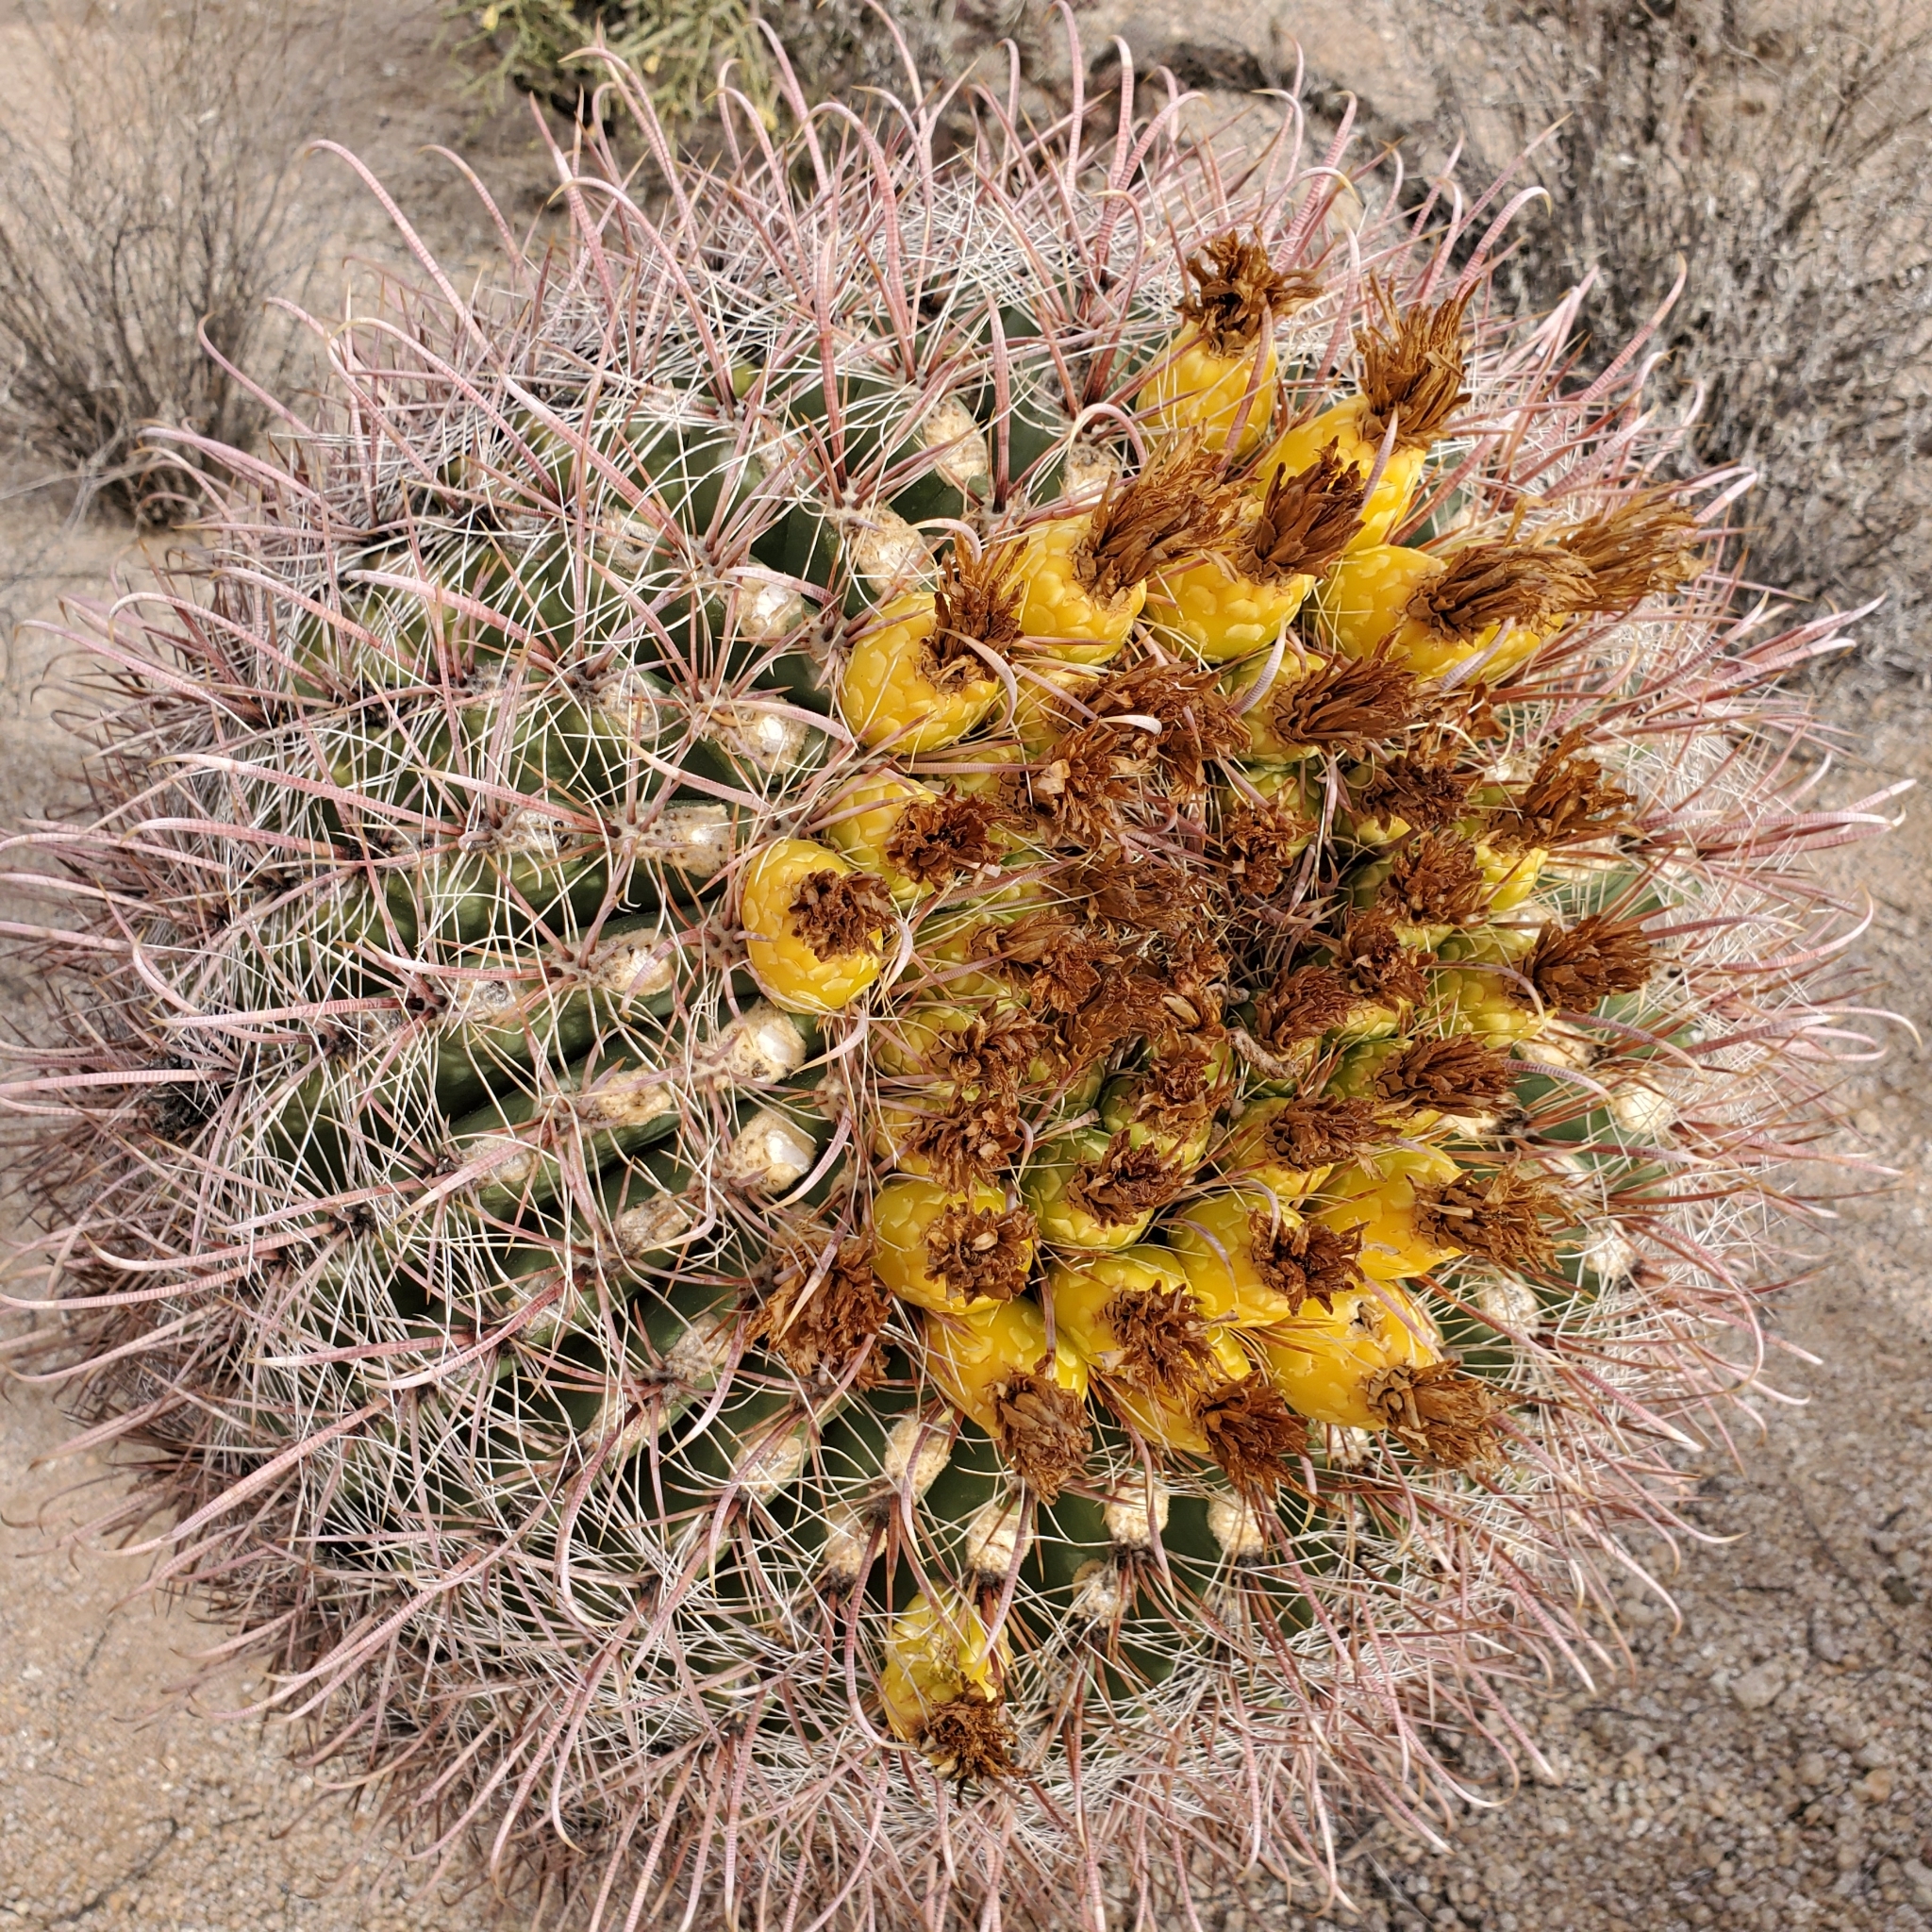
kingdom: Plantae
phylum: Tracheophyta
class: Magnoliopsida
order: Caryophyllales
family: Cactaceae
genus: Ferocactus
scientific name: Ferocactus cylindraceus
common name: California barrel cactus
